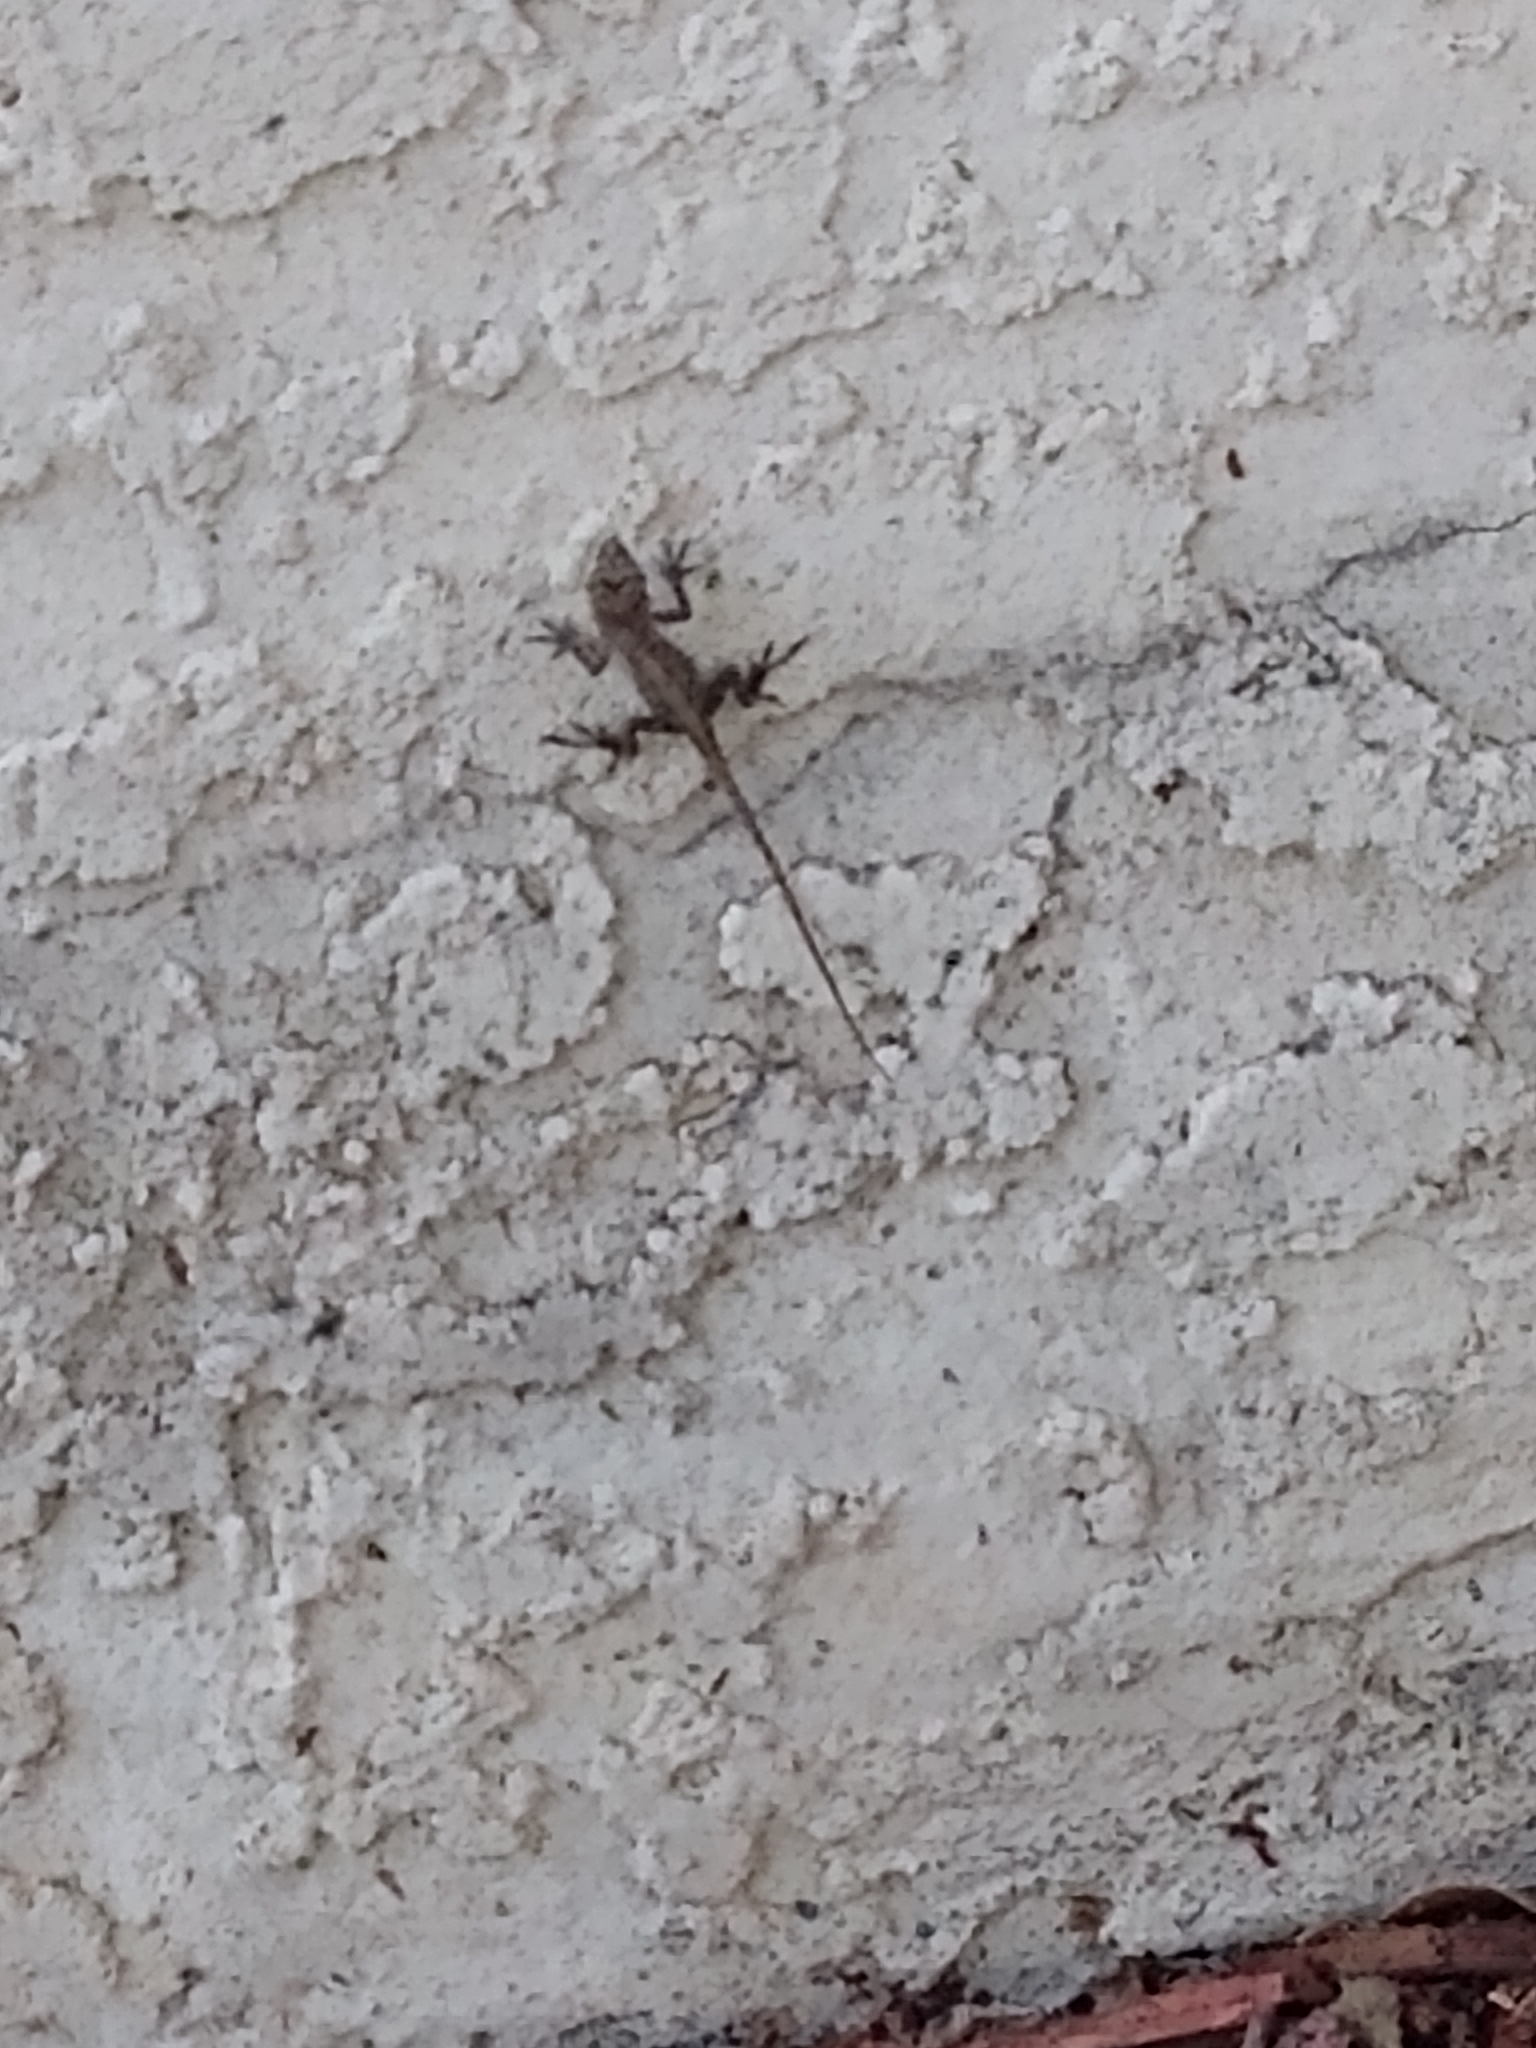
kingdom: Animalia
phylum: Chordata
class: Squamata
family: Dactyloidae
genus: Anolis
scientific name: Anolis sagrei
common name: Brown anole
